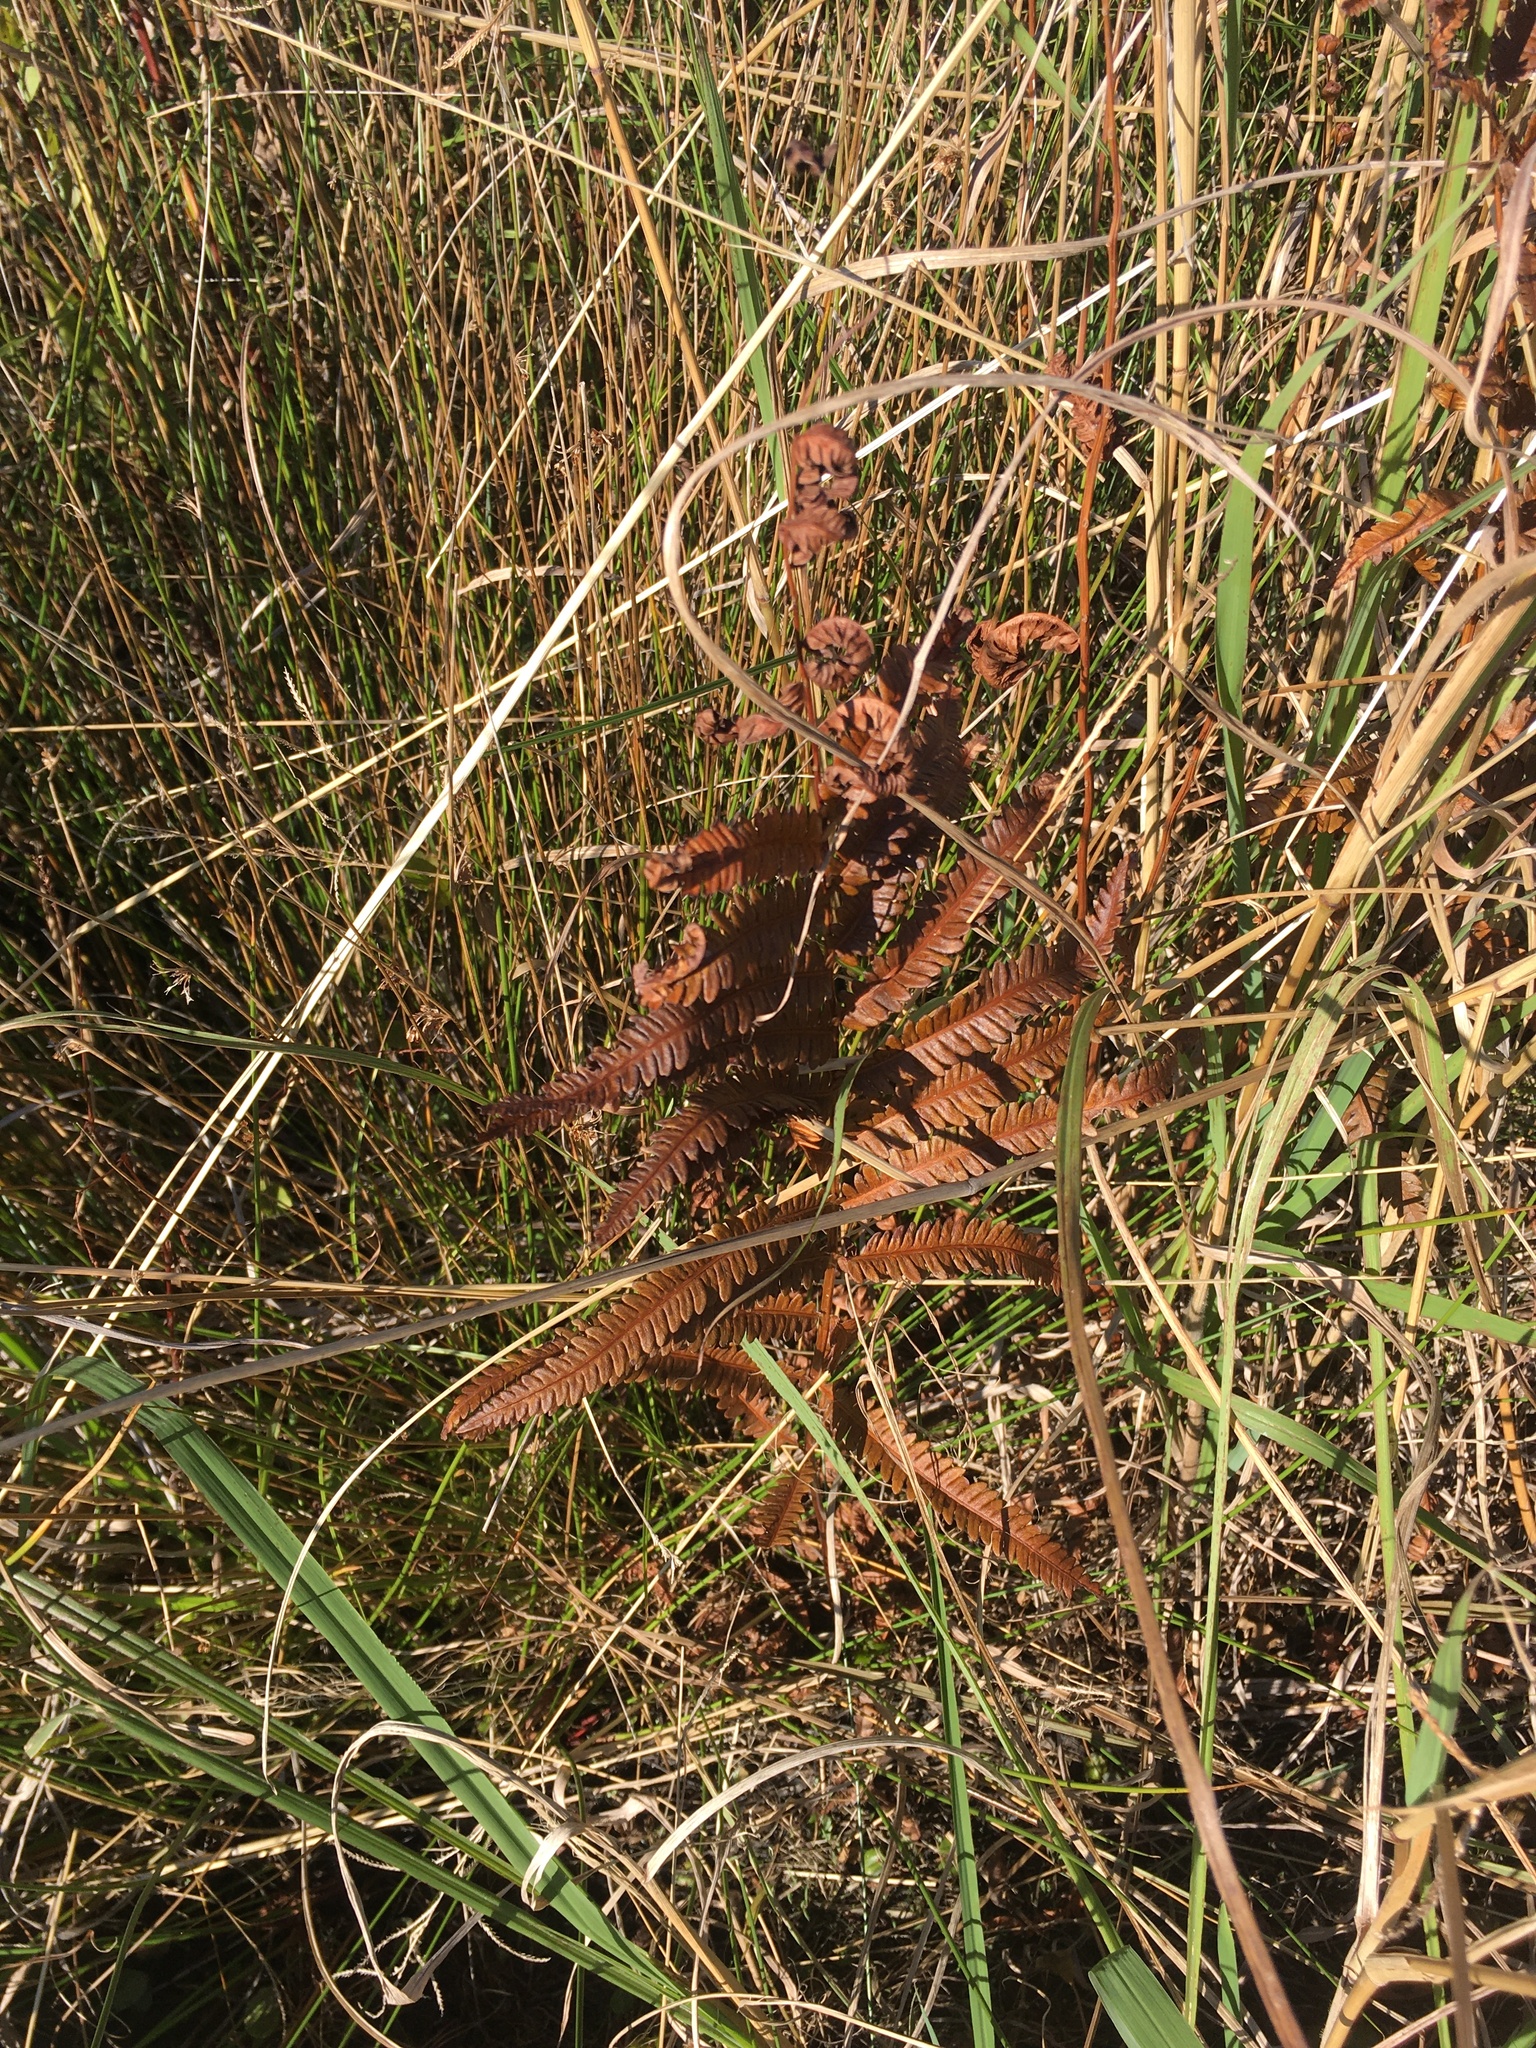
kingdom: Plantae
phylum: Tracheophyta
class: Polypodiopsida
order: Polypodiales
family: Blechnaceae
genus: Anchistea
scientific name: Anchistea virginica
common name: Virginia chain fern
